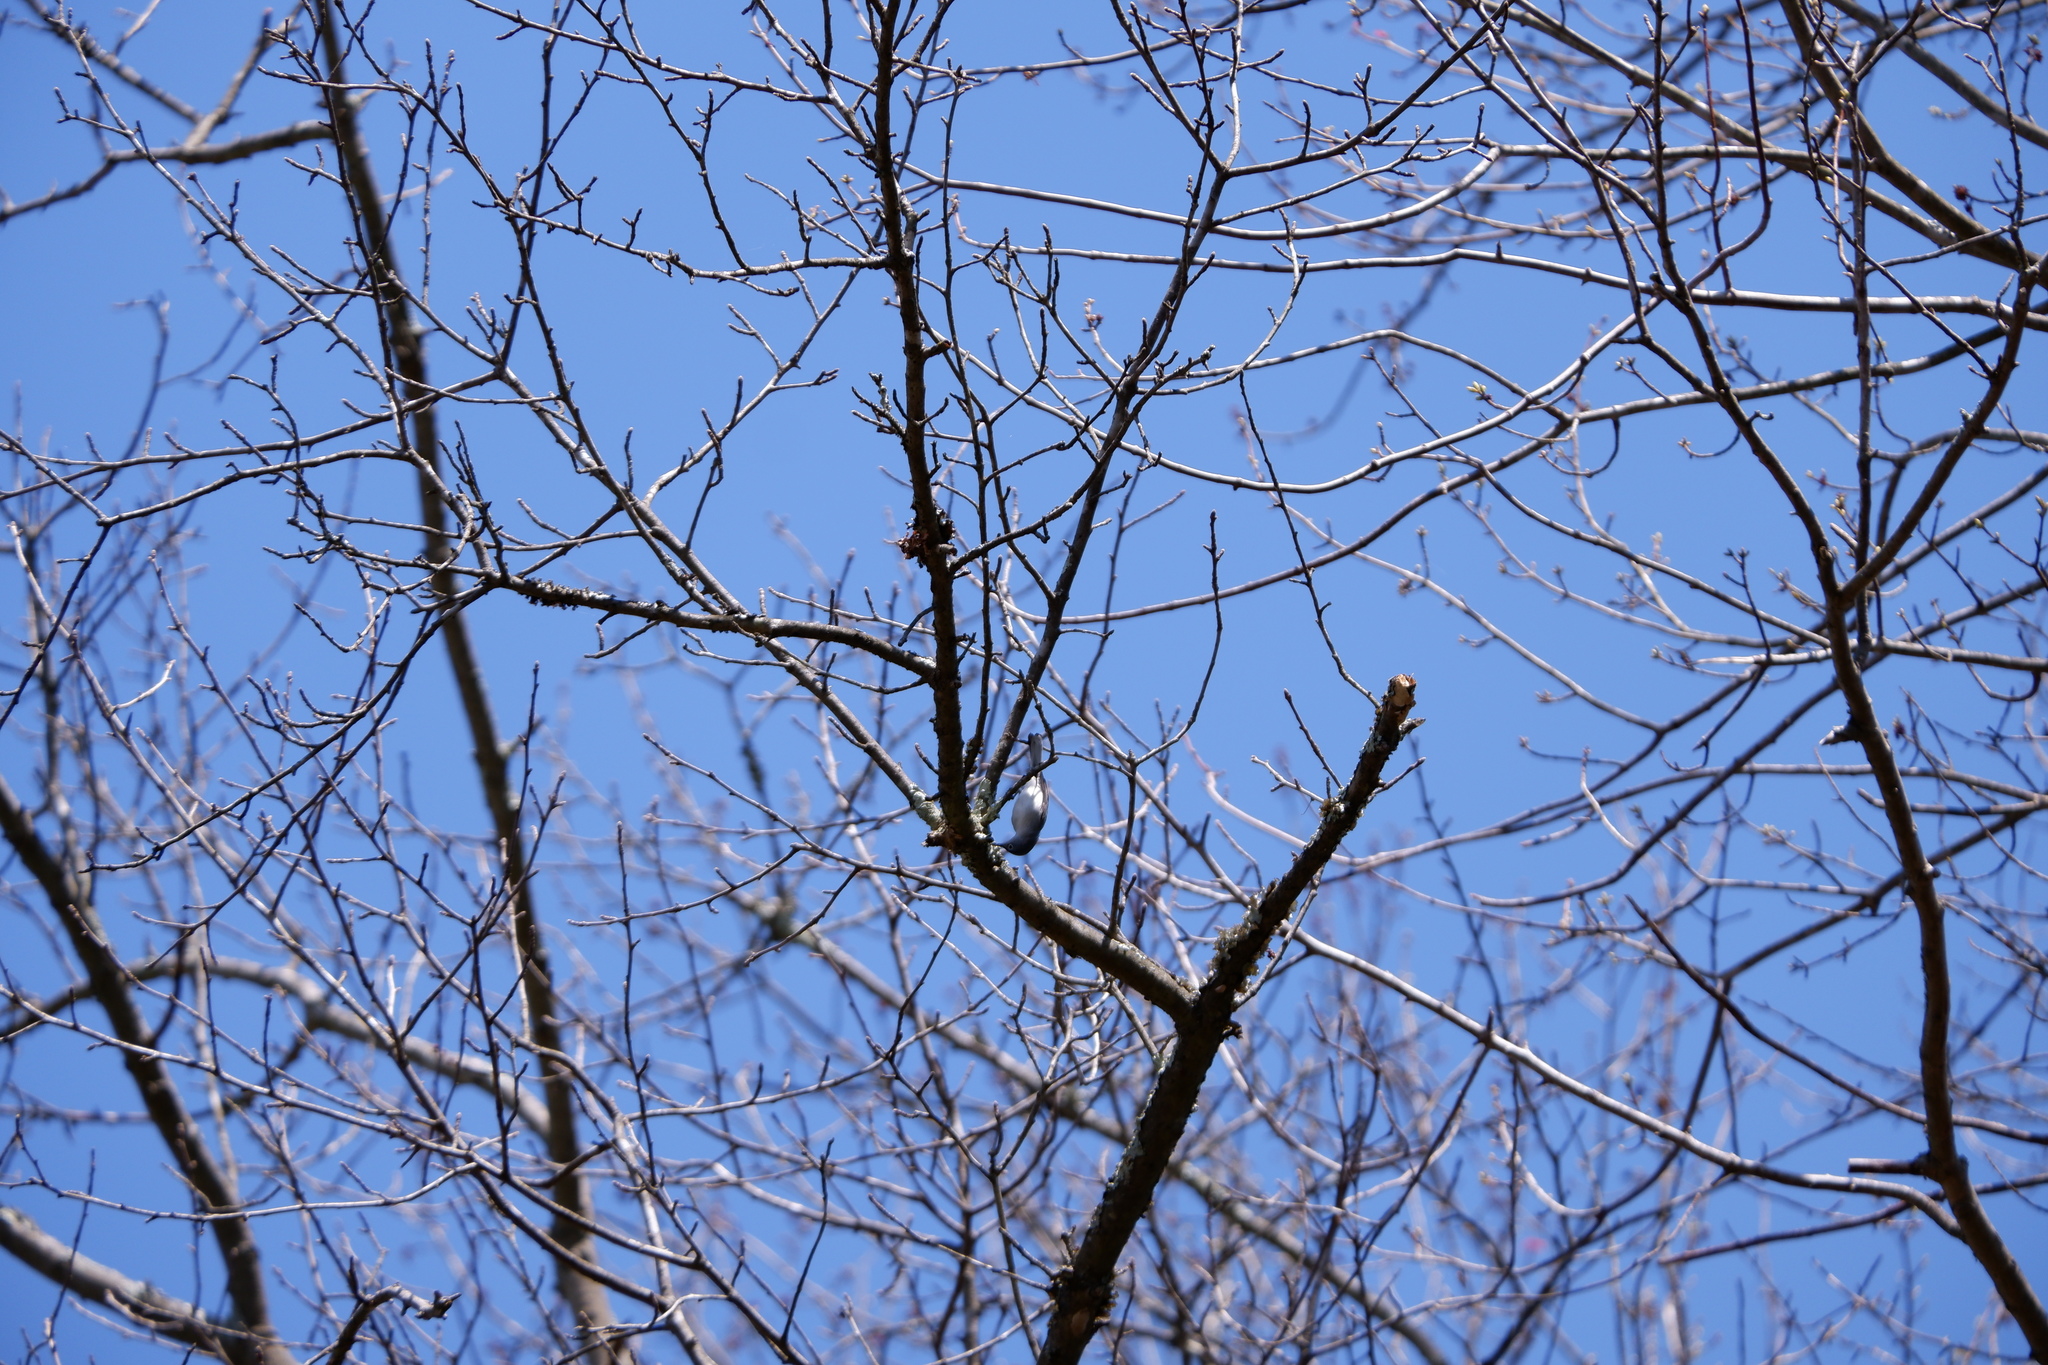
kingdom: Animalia
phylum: Chordata
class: Aves
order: Passeriformes
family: Polioptilidae
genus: Polioptila
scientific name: Polioptila caerulea
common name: Blue-gray gnatcatcher
